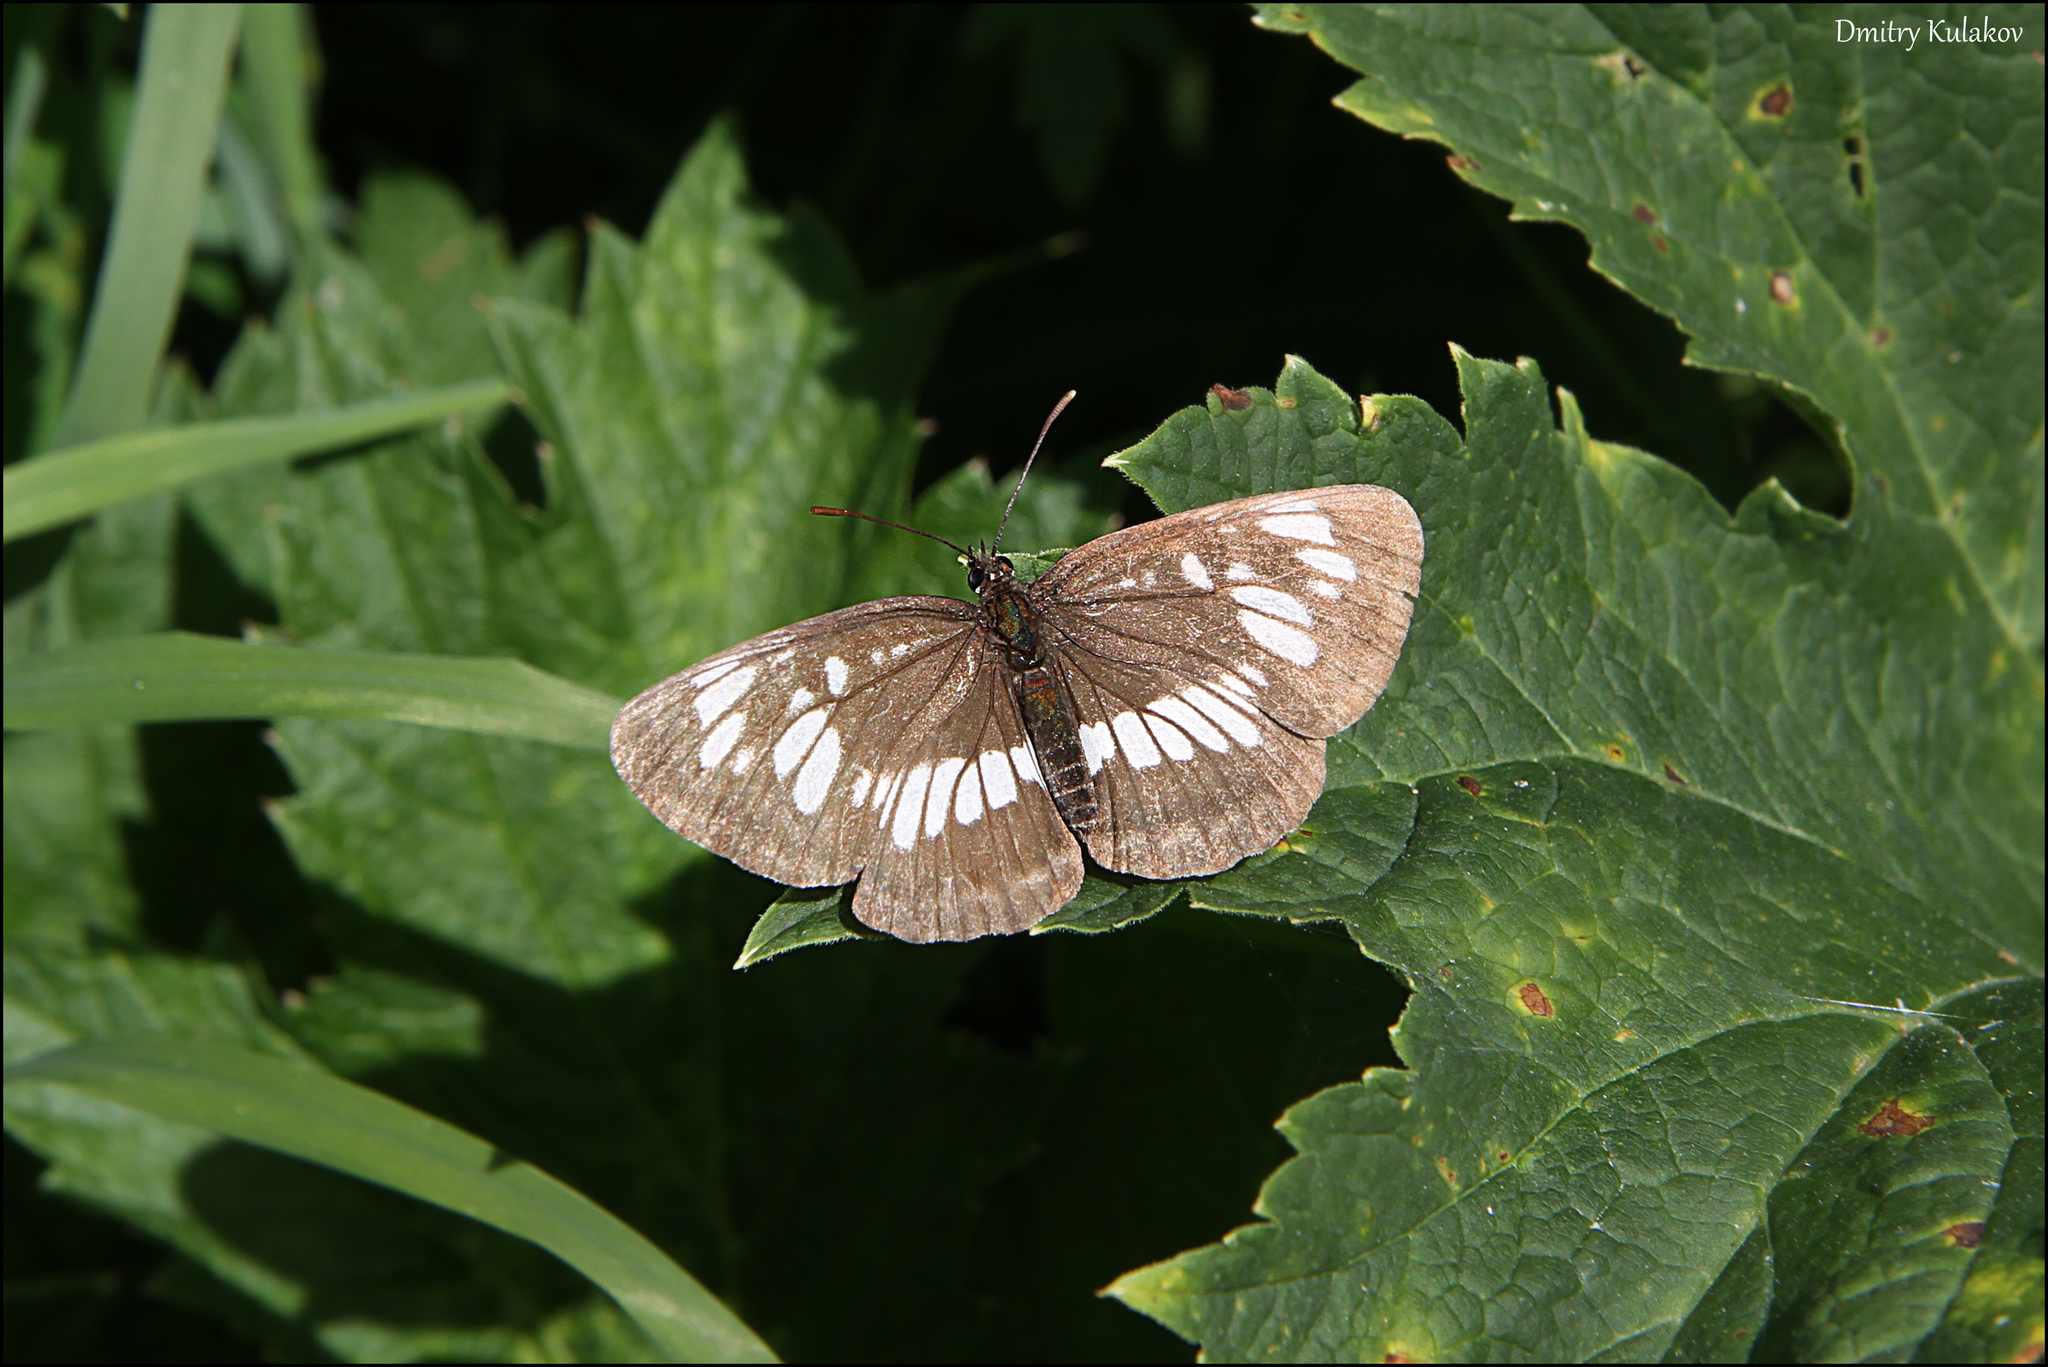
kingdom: Animalia
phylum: Arthropoda
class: Insecta
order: Lepidoptera
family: Nymphalidae
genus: Neptis
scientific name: Neptis rivularis
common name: Hungarian glider
